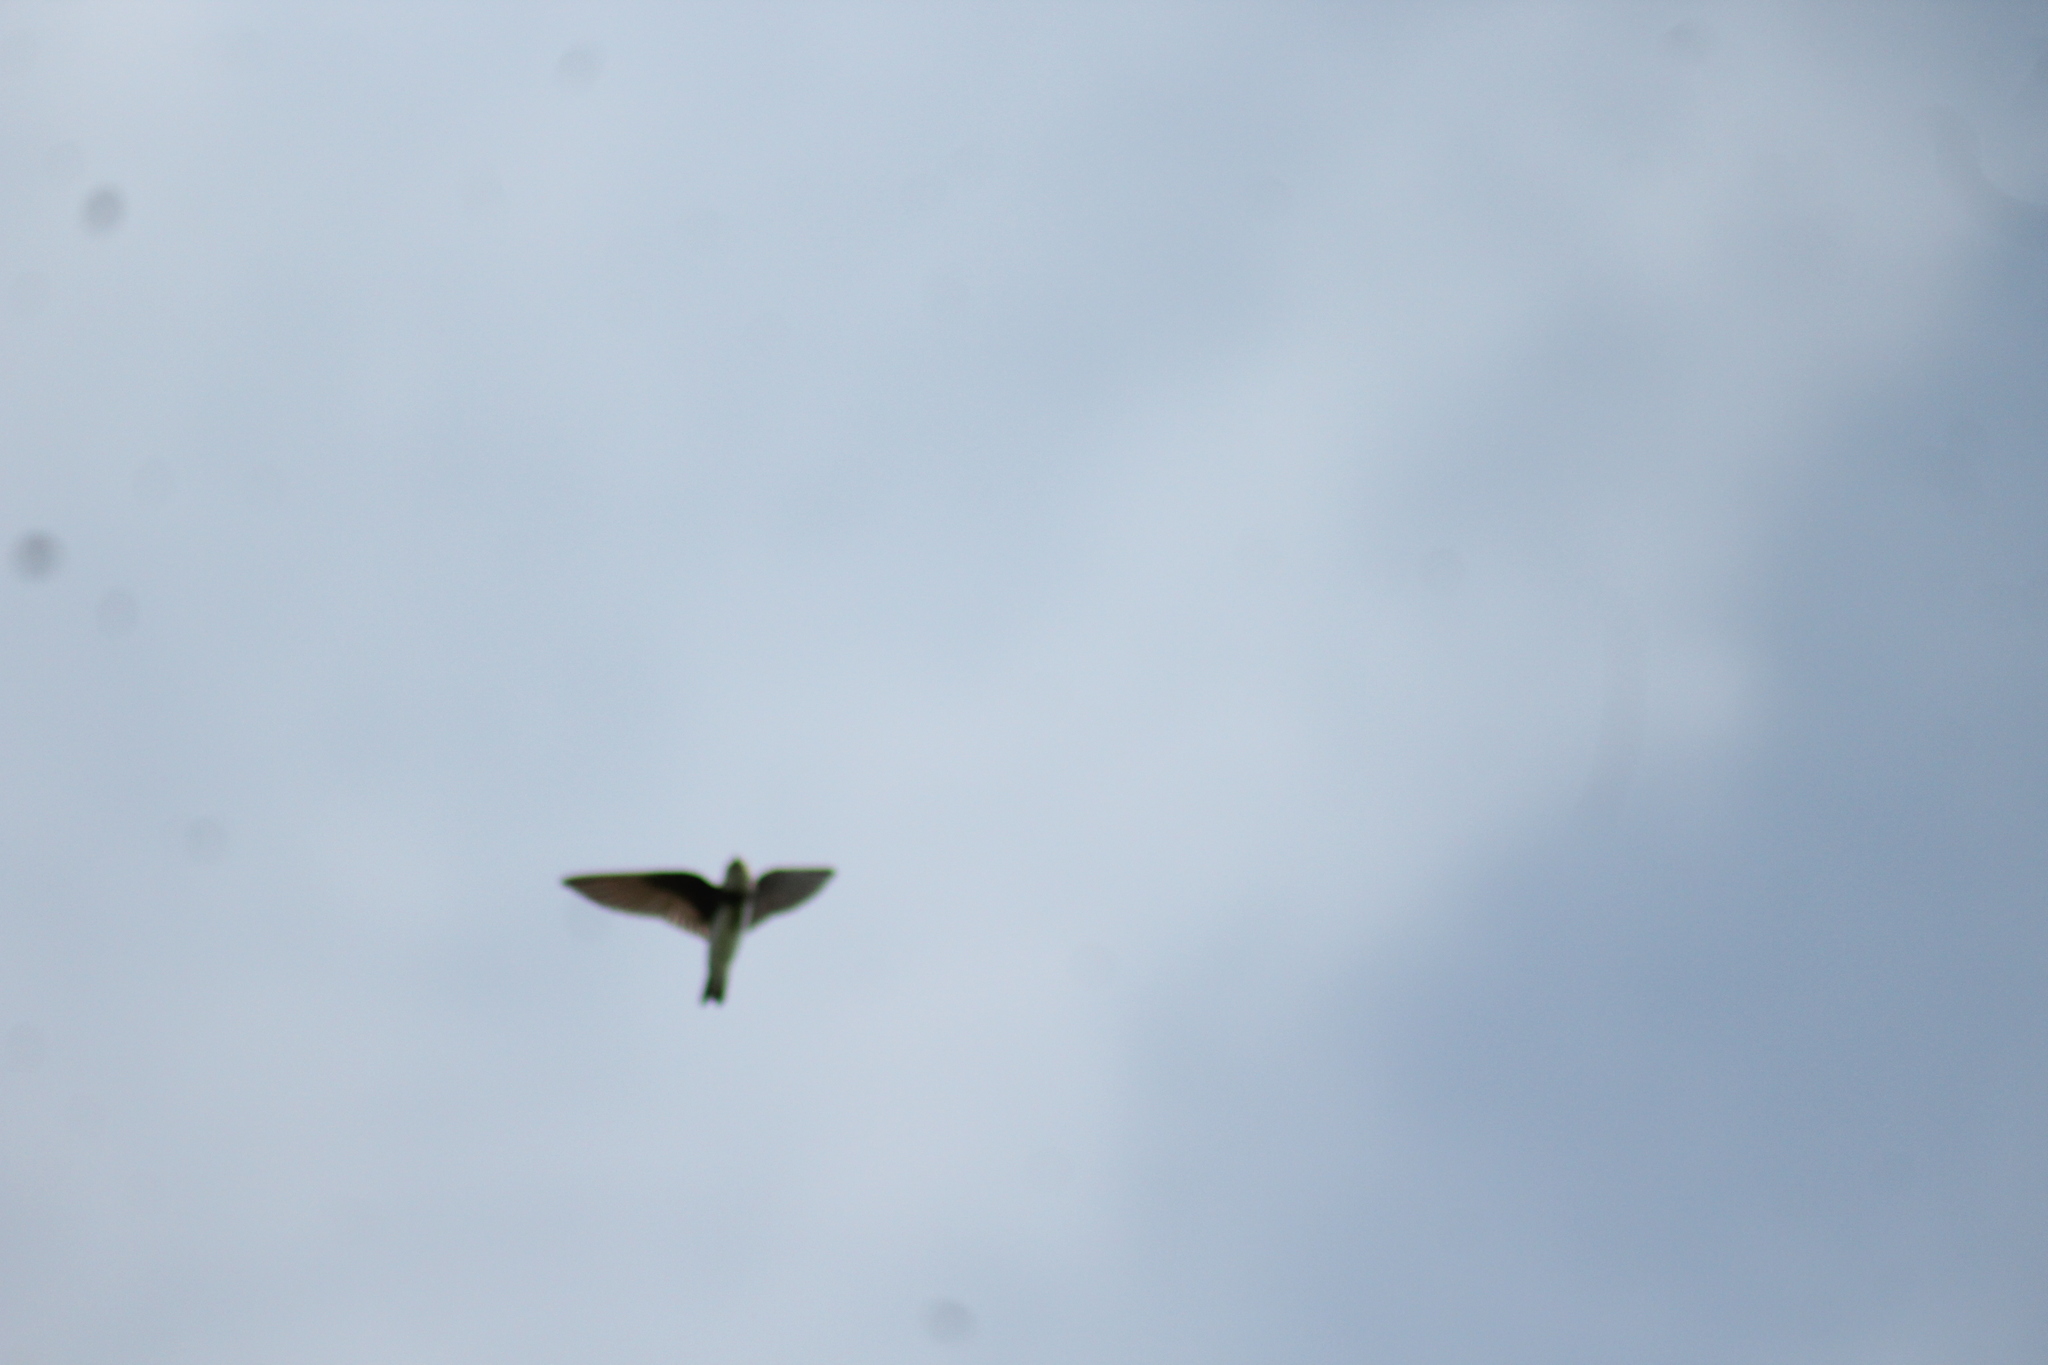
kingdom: Animalia
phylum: Chordata
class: Aves
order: Passeriformes
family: Hirundinidae
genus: Riparia
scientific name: Riparia riparia
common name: Sand martin
